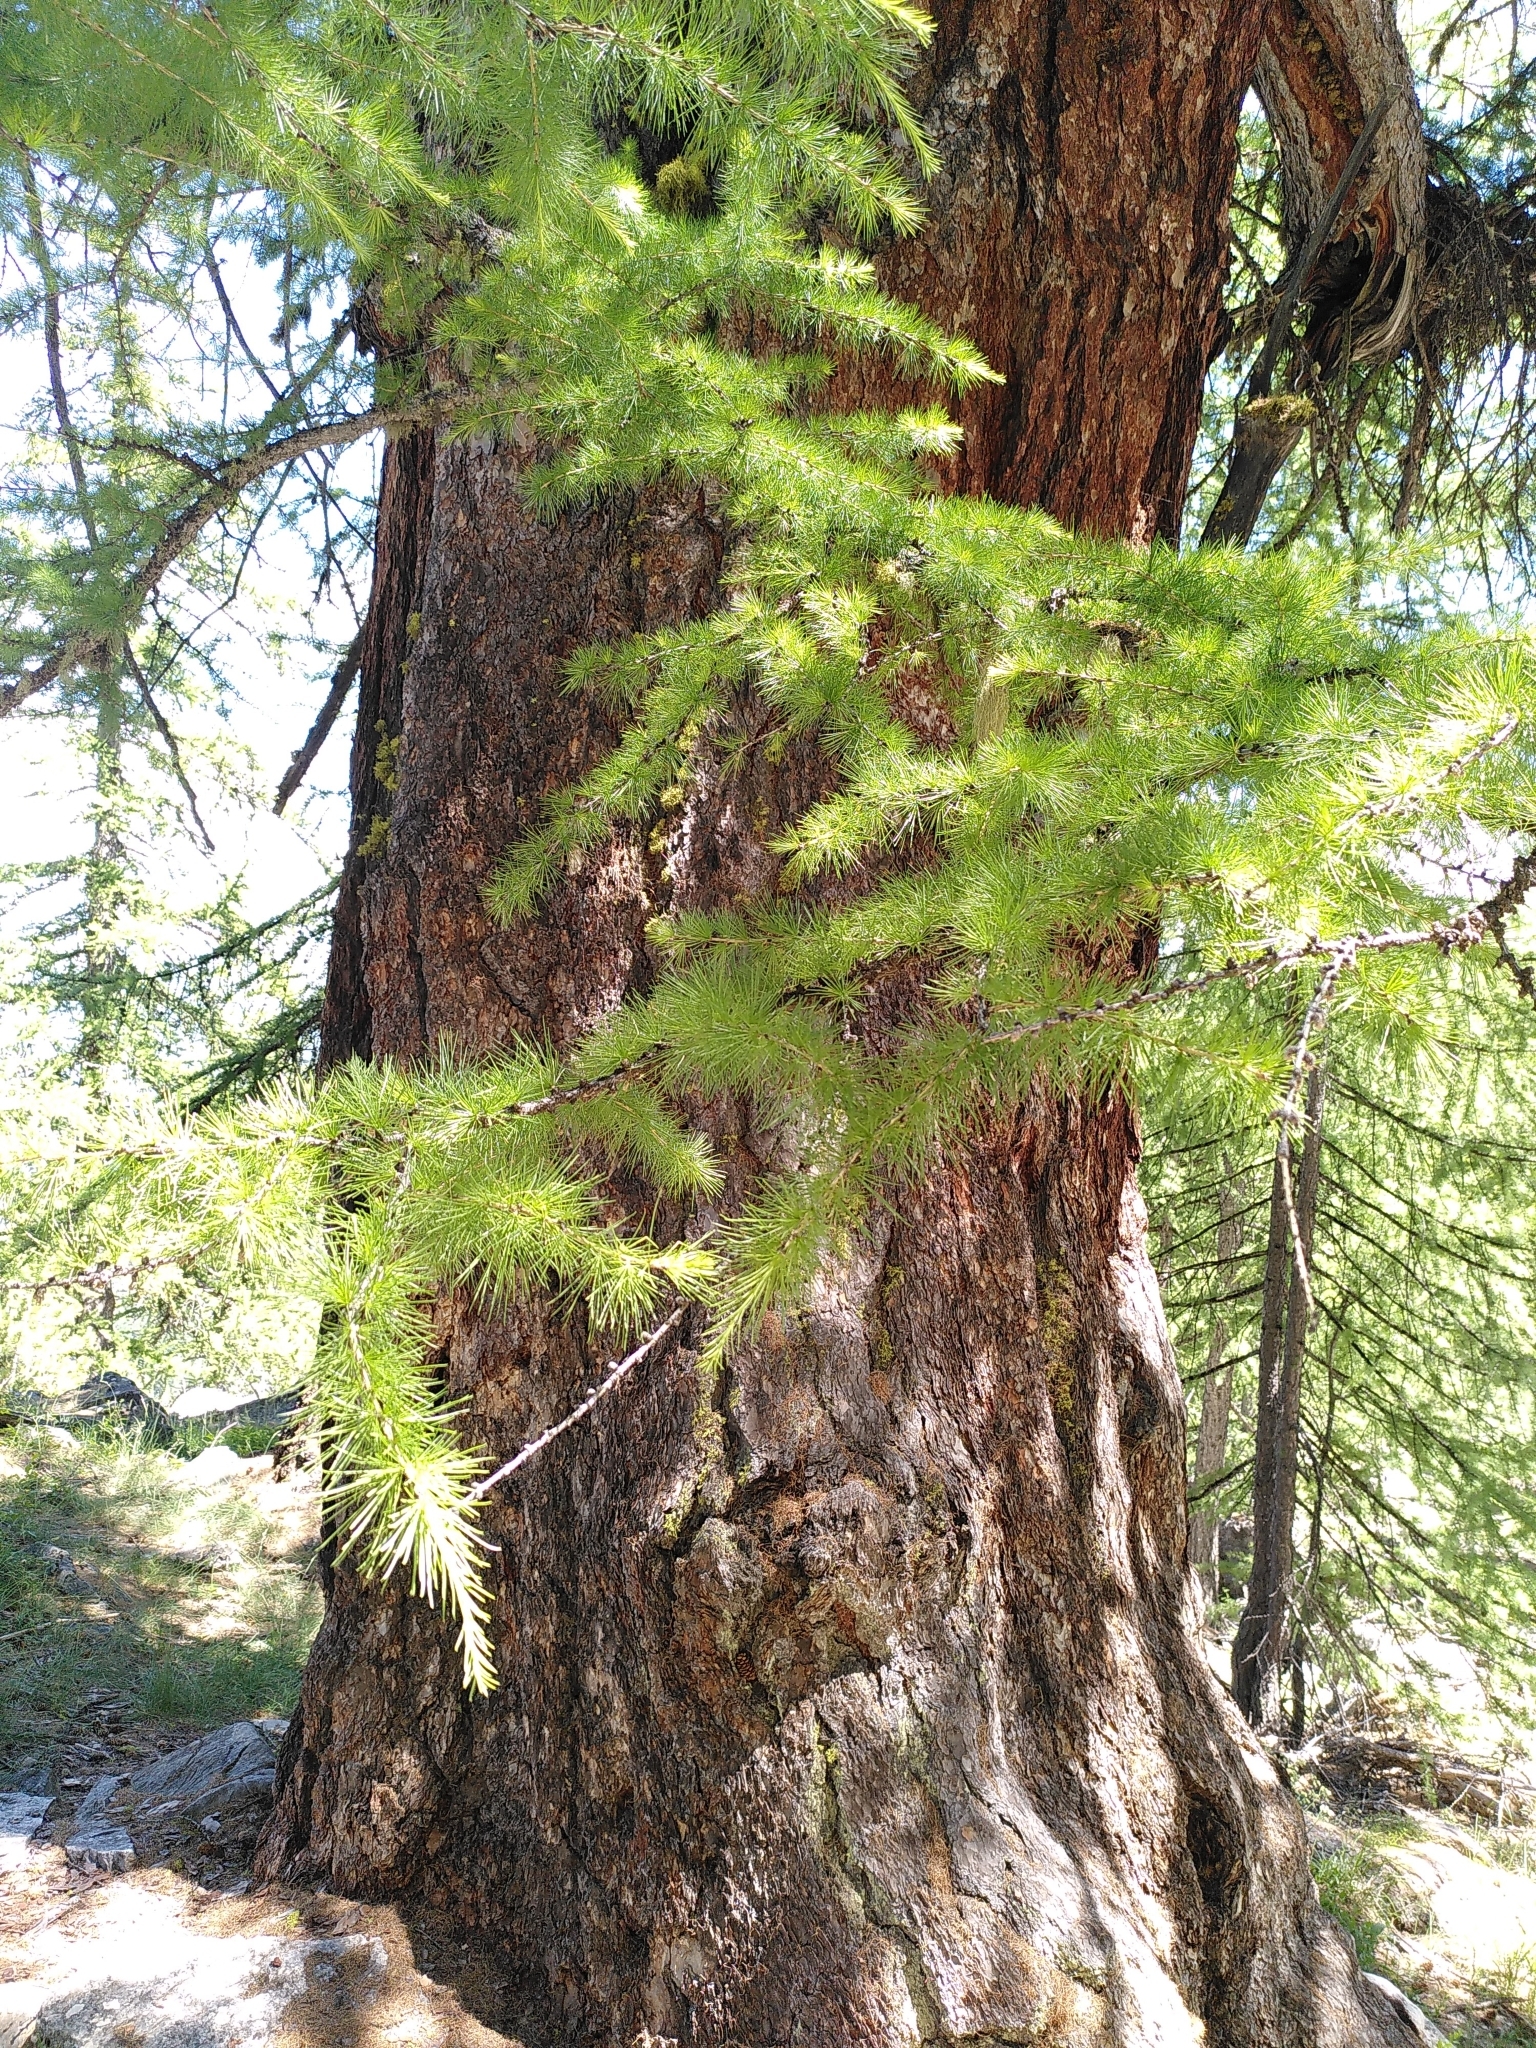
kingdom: Plantae
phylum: Tracheophyta
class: Pinopsida
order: Pinales
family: Pinaceae
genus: Larix
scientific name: Larix decidua
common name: European larch
